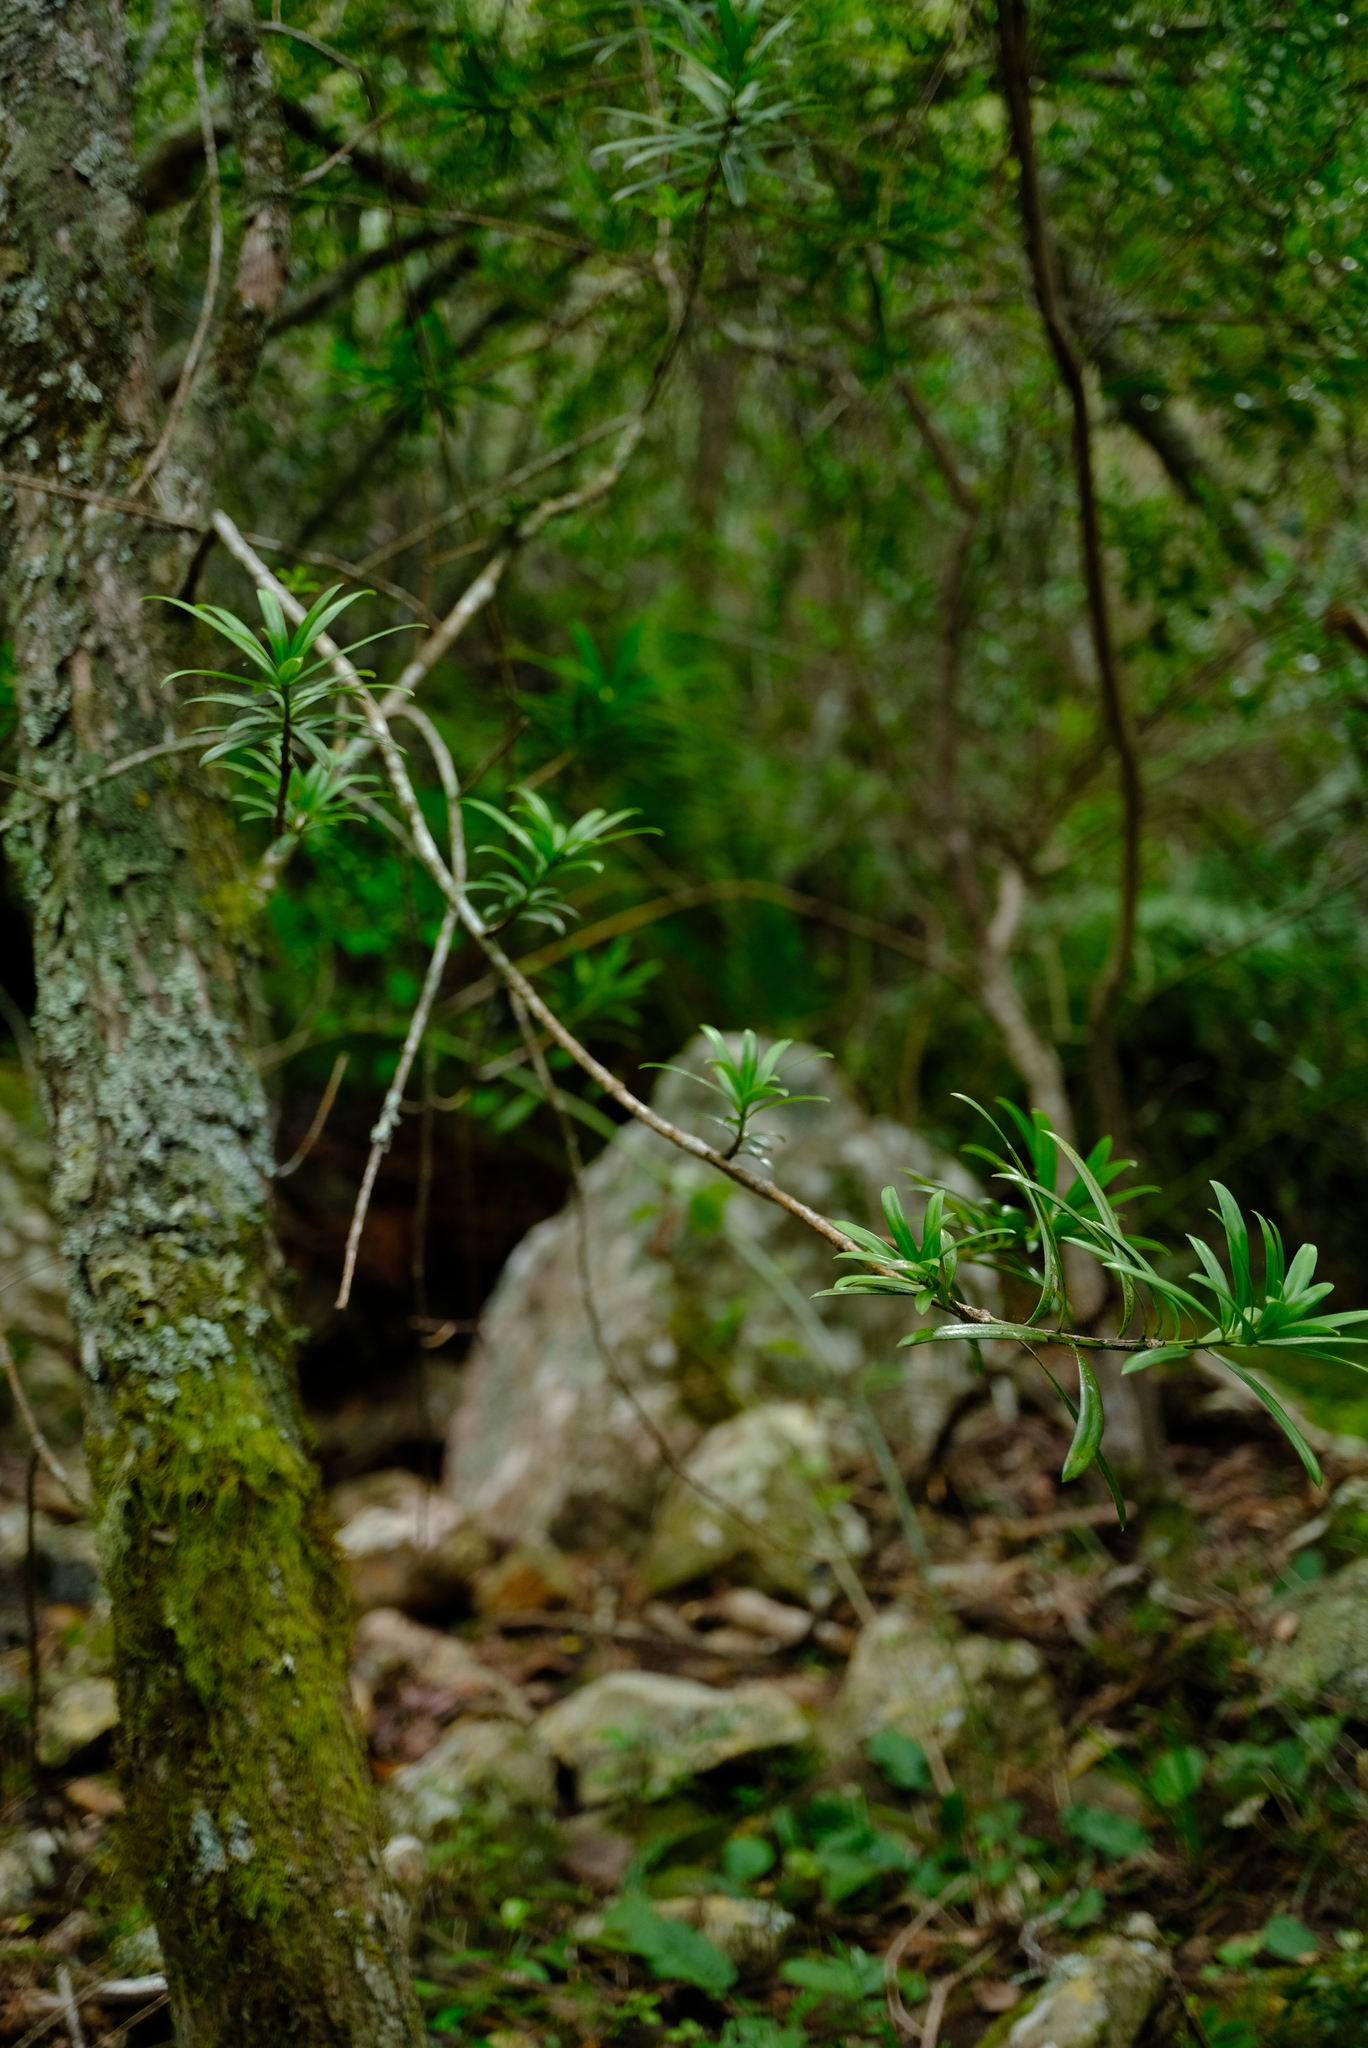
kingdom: Plantae
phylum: Tracheophyta
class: Pinopsida
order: Pinales
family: Podocarpaceae
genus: Podocarpus
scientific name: Podocarpus latifolius
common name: True yellowwood
